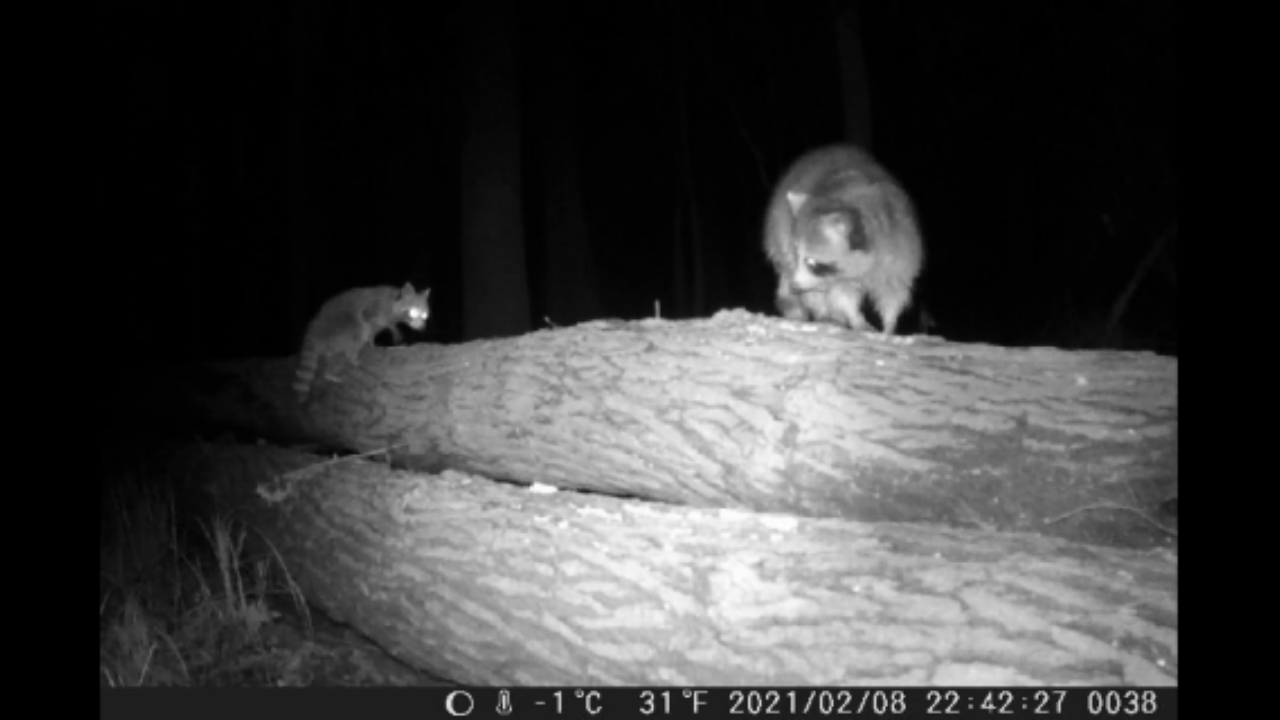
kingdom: Animalia
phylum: Chordata
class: Mammalia
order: Carnivora
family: Procyonidae
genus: Procyon
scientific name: Procyon lotor
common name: Raccoon
